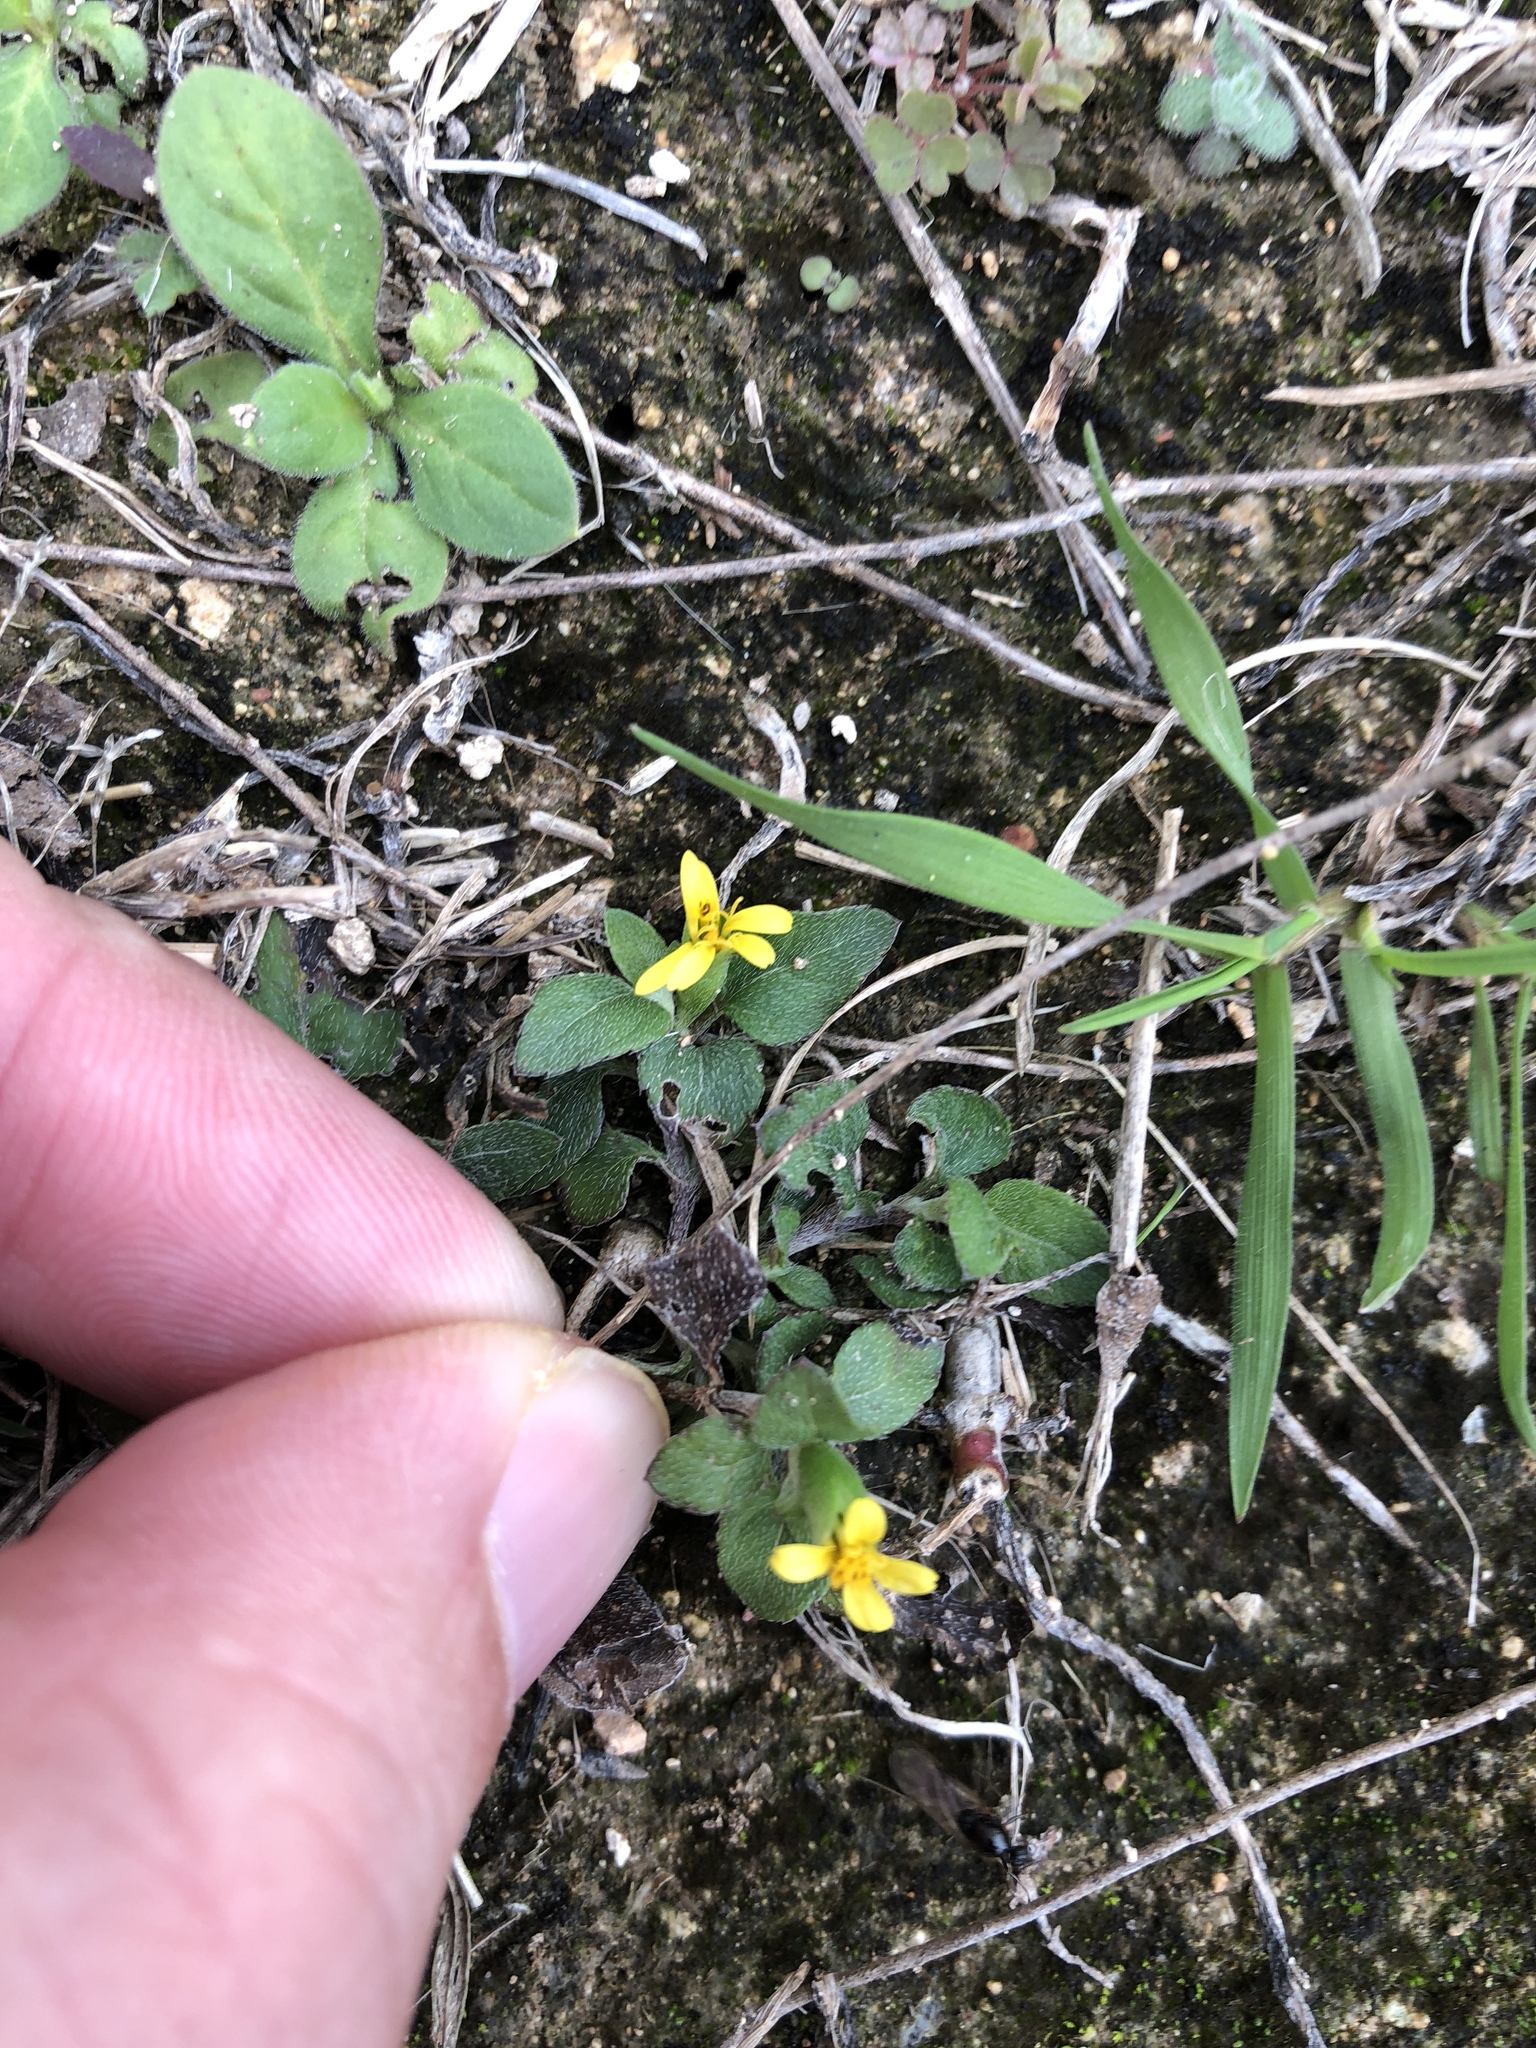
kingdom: Plantae
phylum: Tracheophyta
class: Magnoliopsida
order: Asterales
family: Asteraceae
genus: Calyptocarpus
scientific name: Calyptocarpus vialis
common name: Straggler daisy
